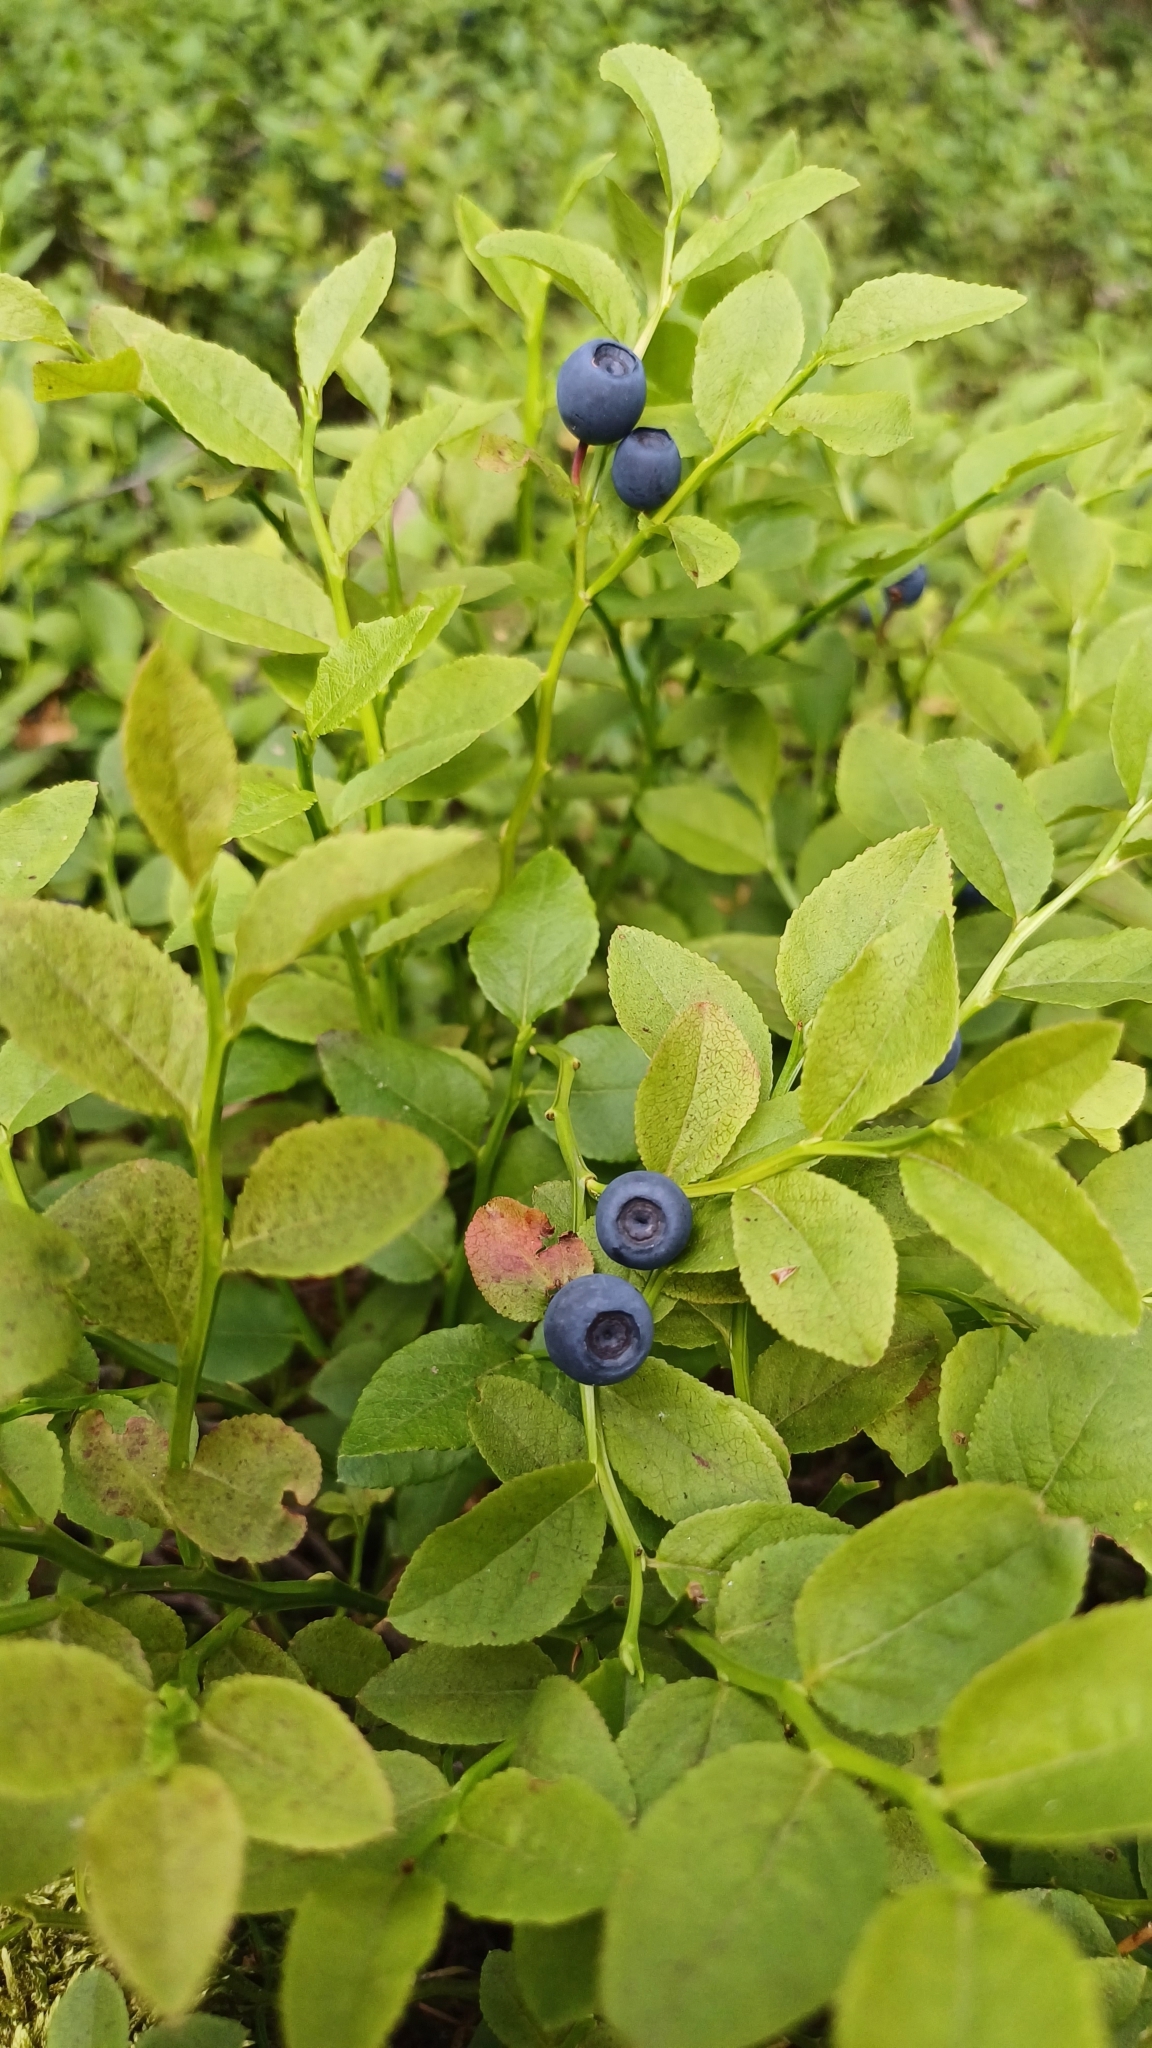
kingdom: Plantae
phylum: Tracheophyta
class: Magnoliopsida
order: Ericales
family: Ericaceae
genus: Vaccinium
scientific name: Vaccinium myrtillus
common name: Bilberry
